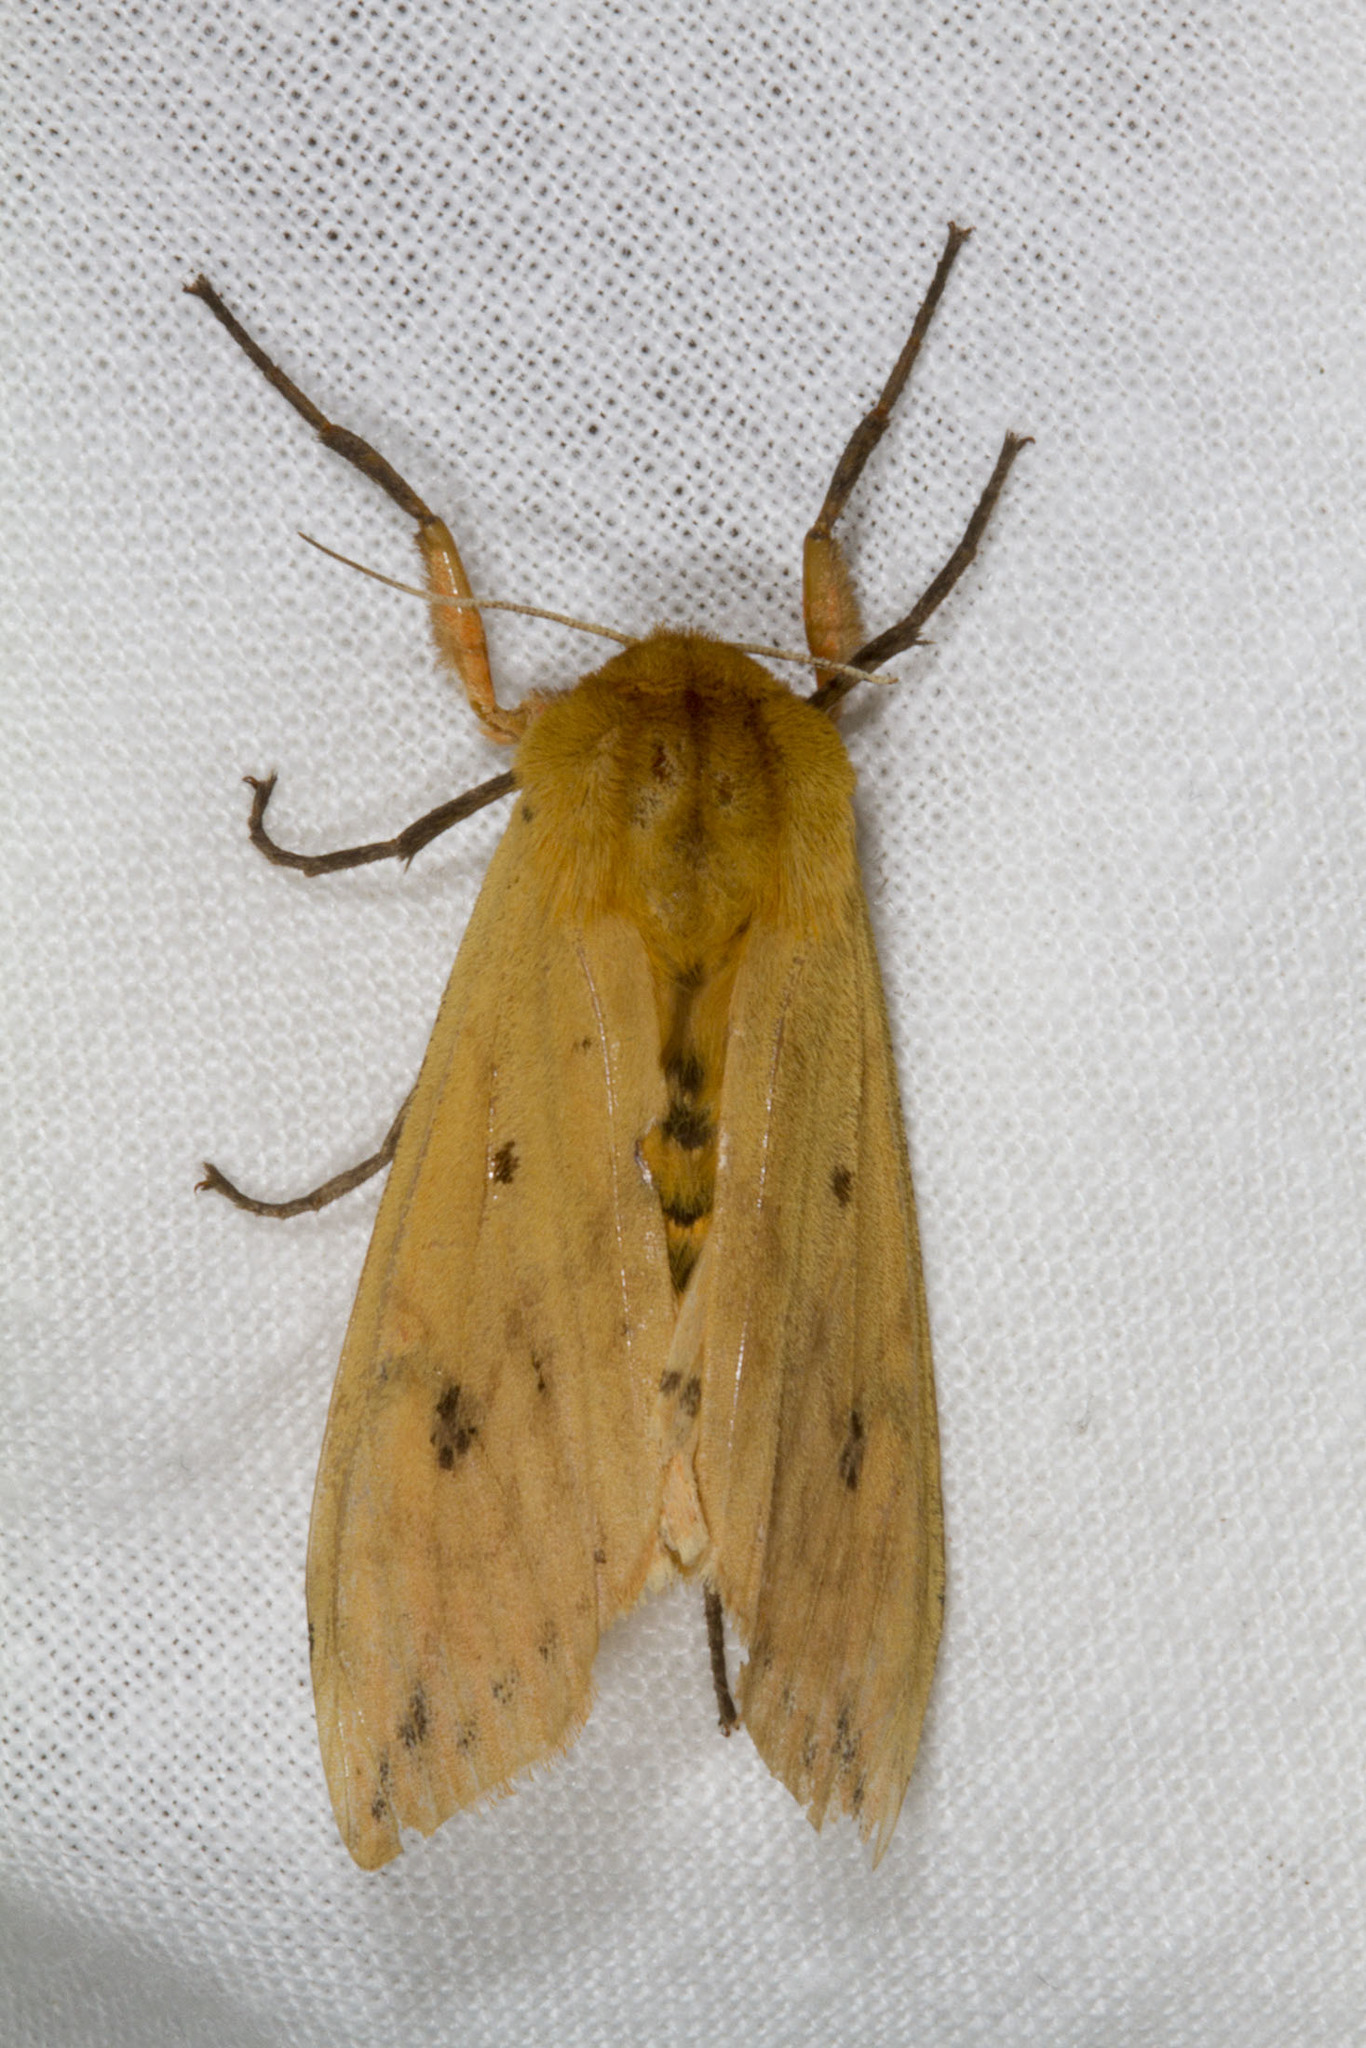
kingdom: Animalia
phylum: Arthropoda
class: Insecta
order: Lepidoptera
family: Erebidae
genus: Pyrrharctia
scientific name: Pyrrharctia isabella
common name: Isabella tiger moth
